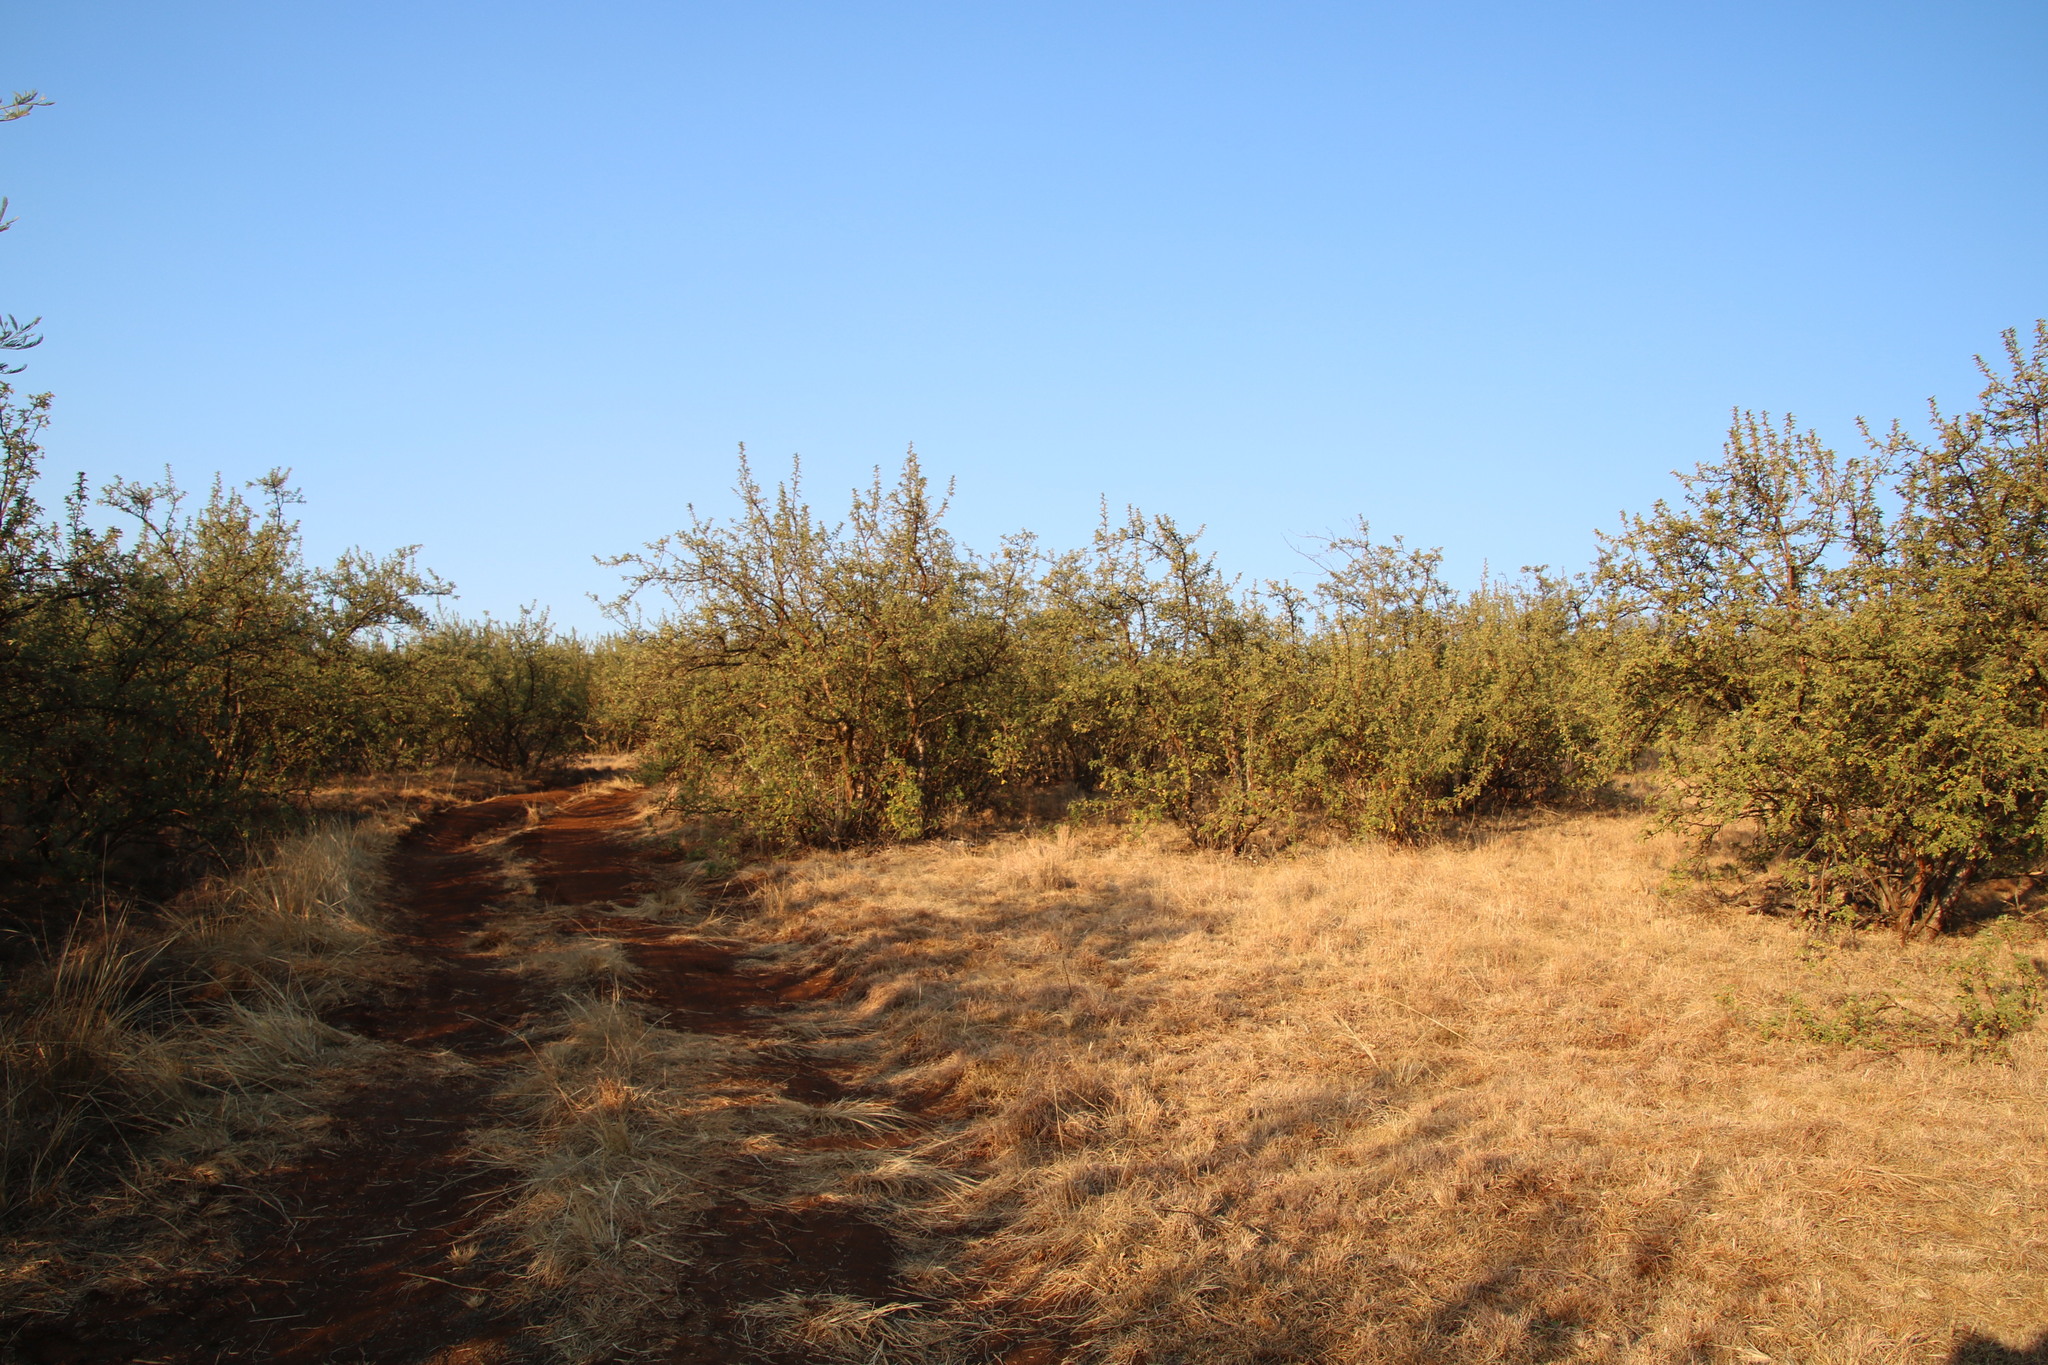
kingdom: Plantae
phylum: Tracheophyta
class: Magnoliopsida
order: Rosales
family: Rosaceae
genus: Leucosidea
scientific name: Leucosidea sericea
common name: Oldwood
